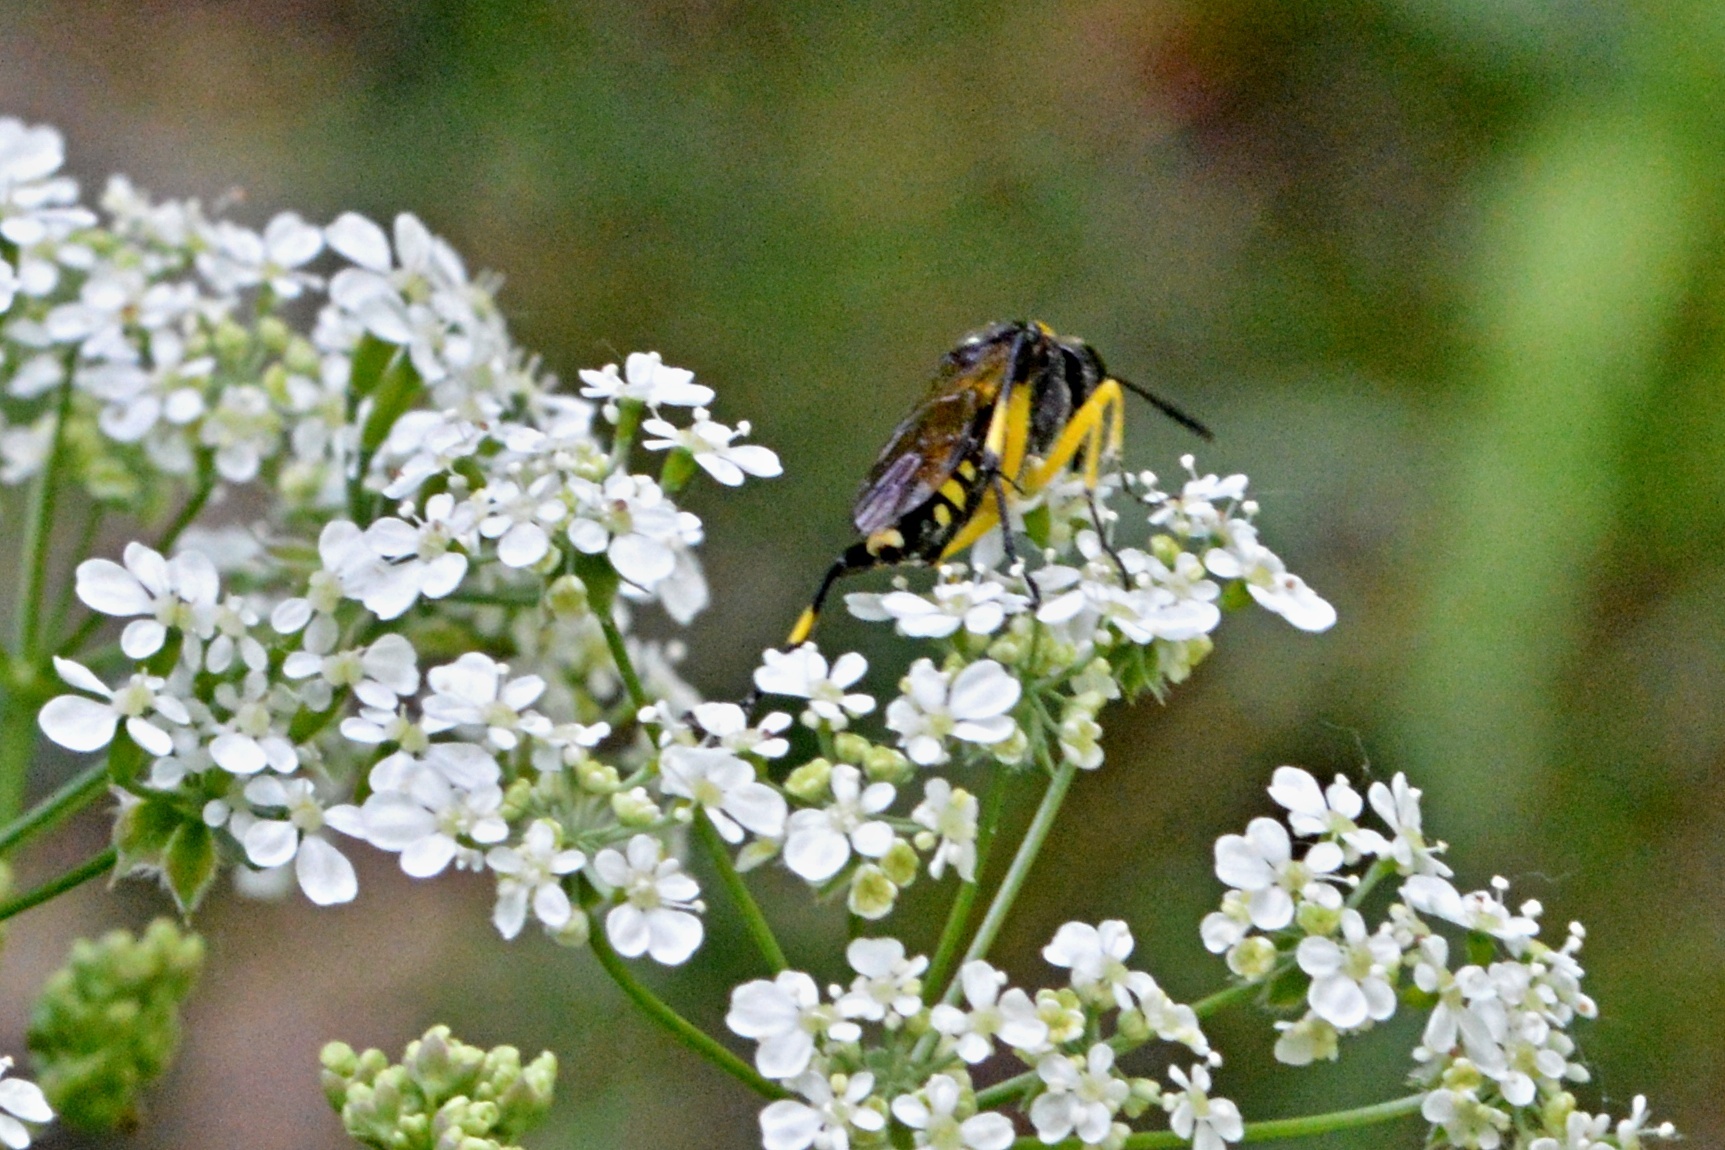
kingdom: Animalia
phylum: Arthropoda
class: Insecta
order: Hymenoptera
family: Tenthredinidae
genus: Macrophya
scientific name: Macrophya montana
